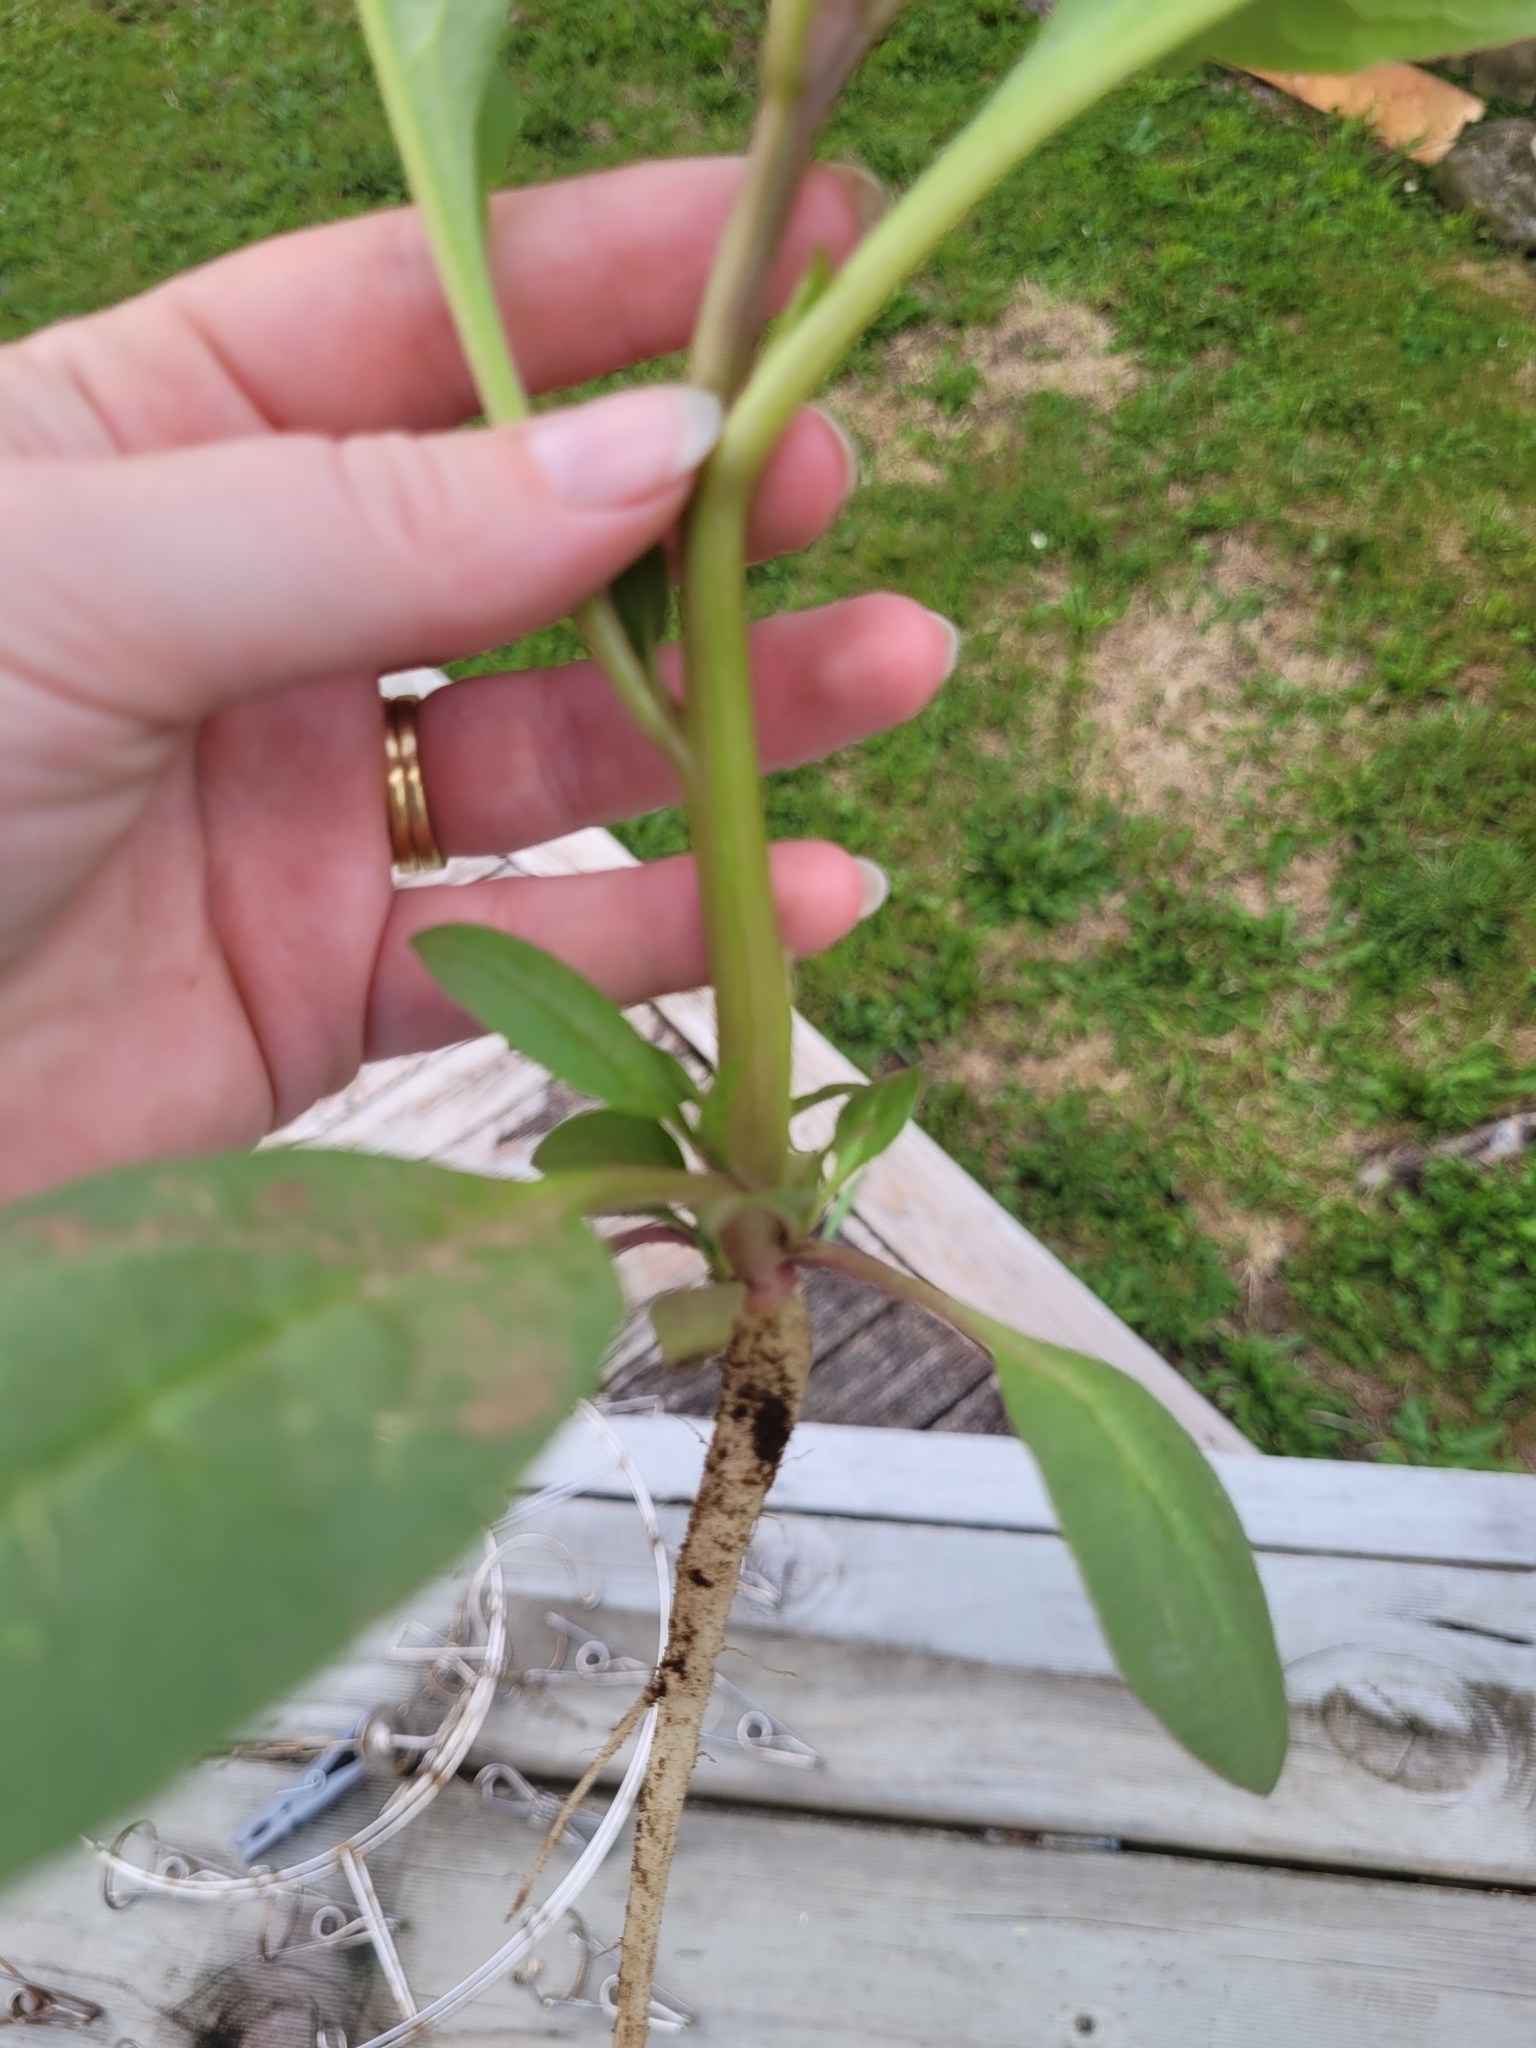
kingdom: Plantae
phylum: Tracheophyta
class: Magnoliopsida
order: Caryophyllales
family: Phytolaccaceae
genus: Phytolacca
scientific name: Phytolacca icosandra
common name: Button pokeweed
